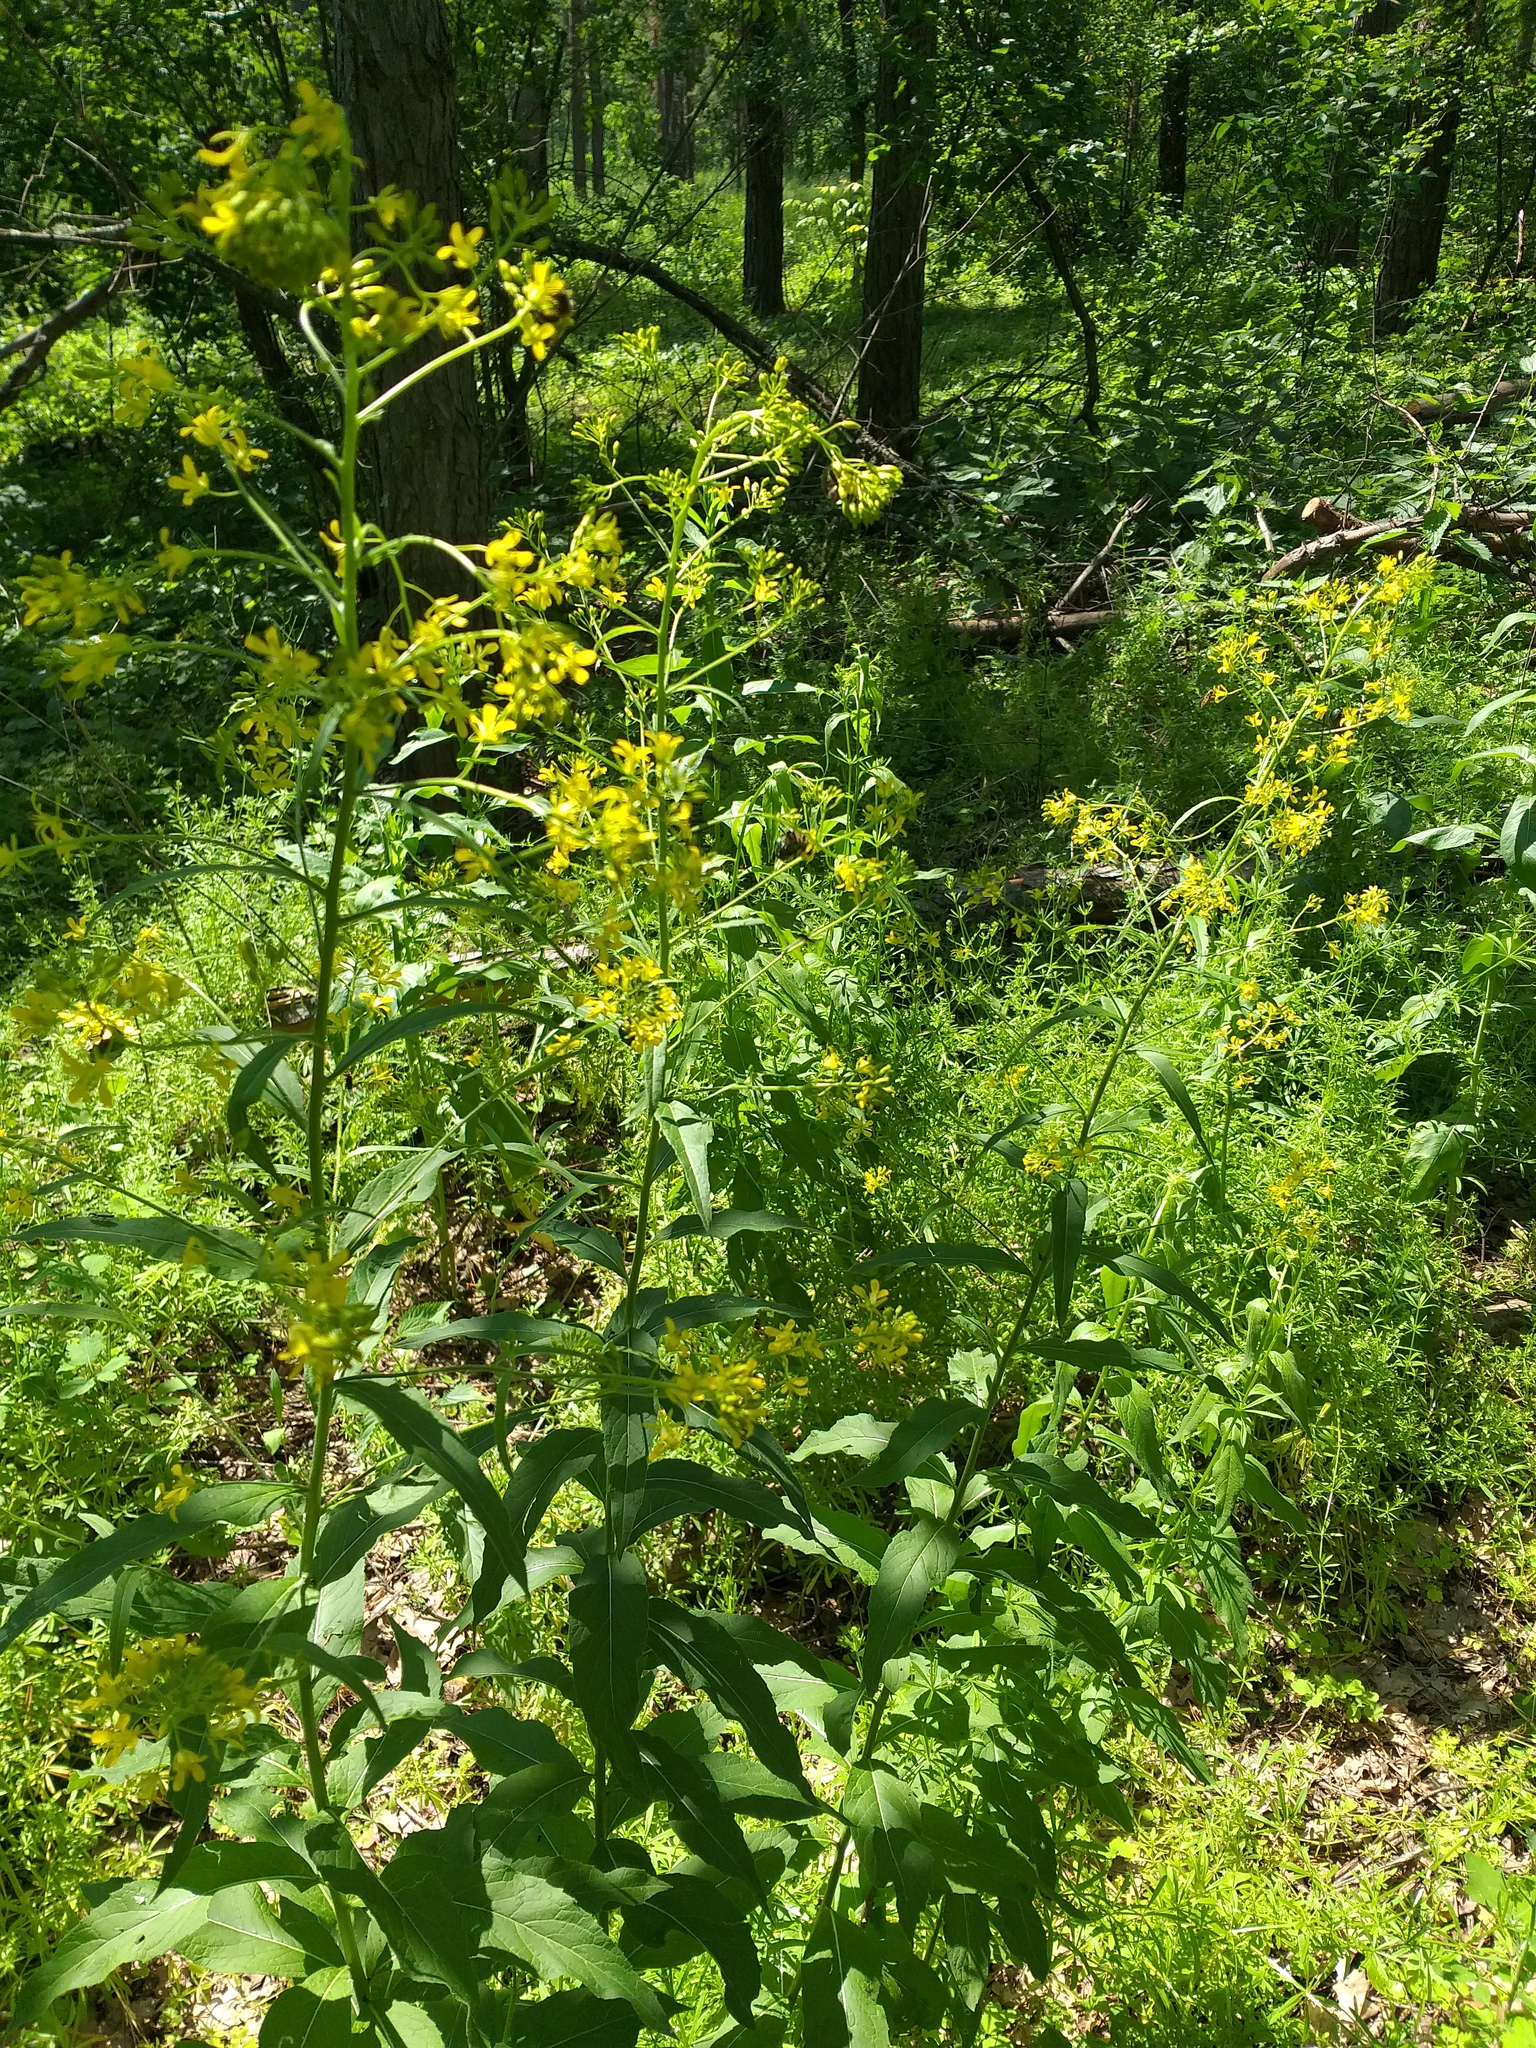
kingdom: Plantae
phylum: Tracheophyta
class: Magnoliopsida
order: Brassicales
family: Brassicaceae
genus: Sisymbrium
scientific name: Sisymbrium strictissimum
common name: Perennial rocket
